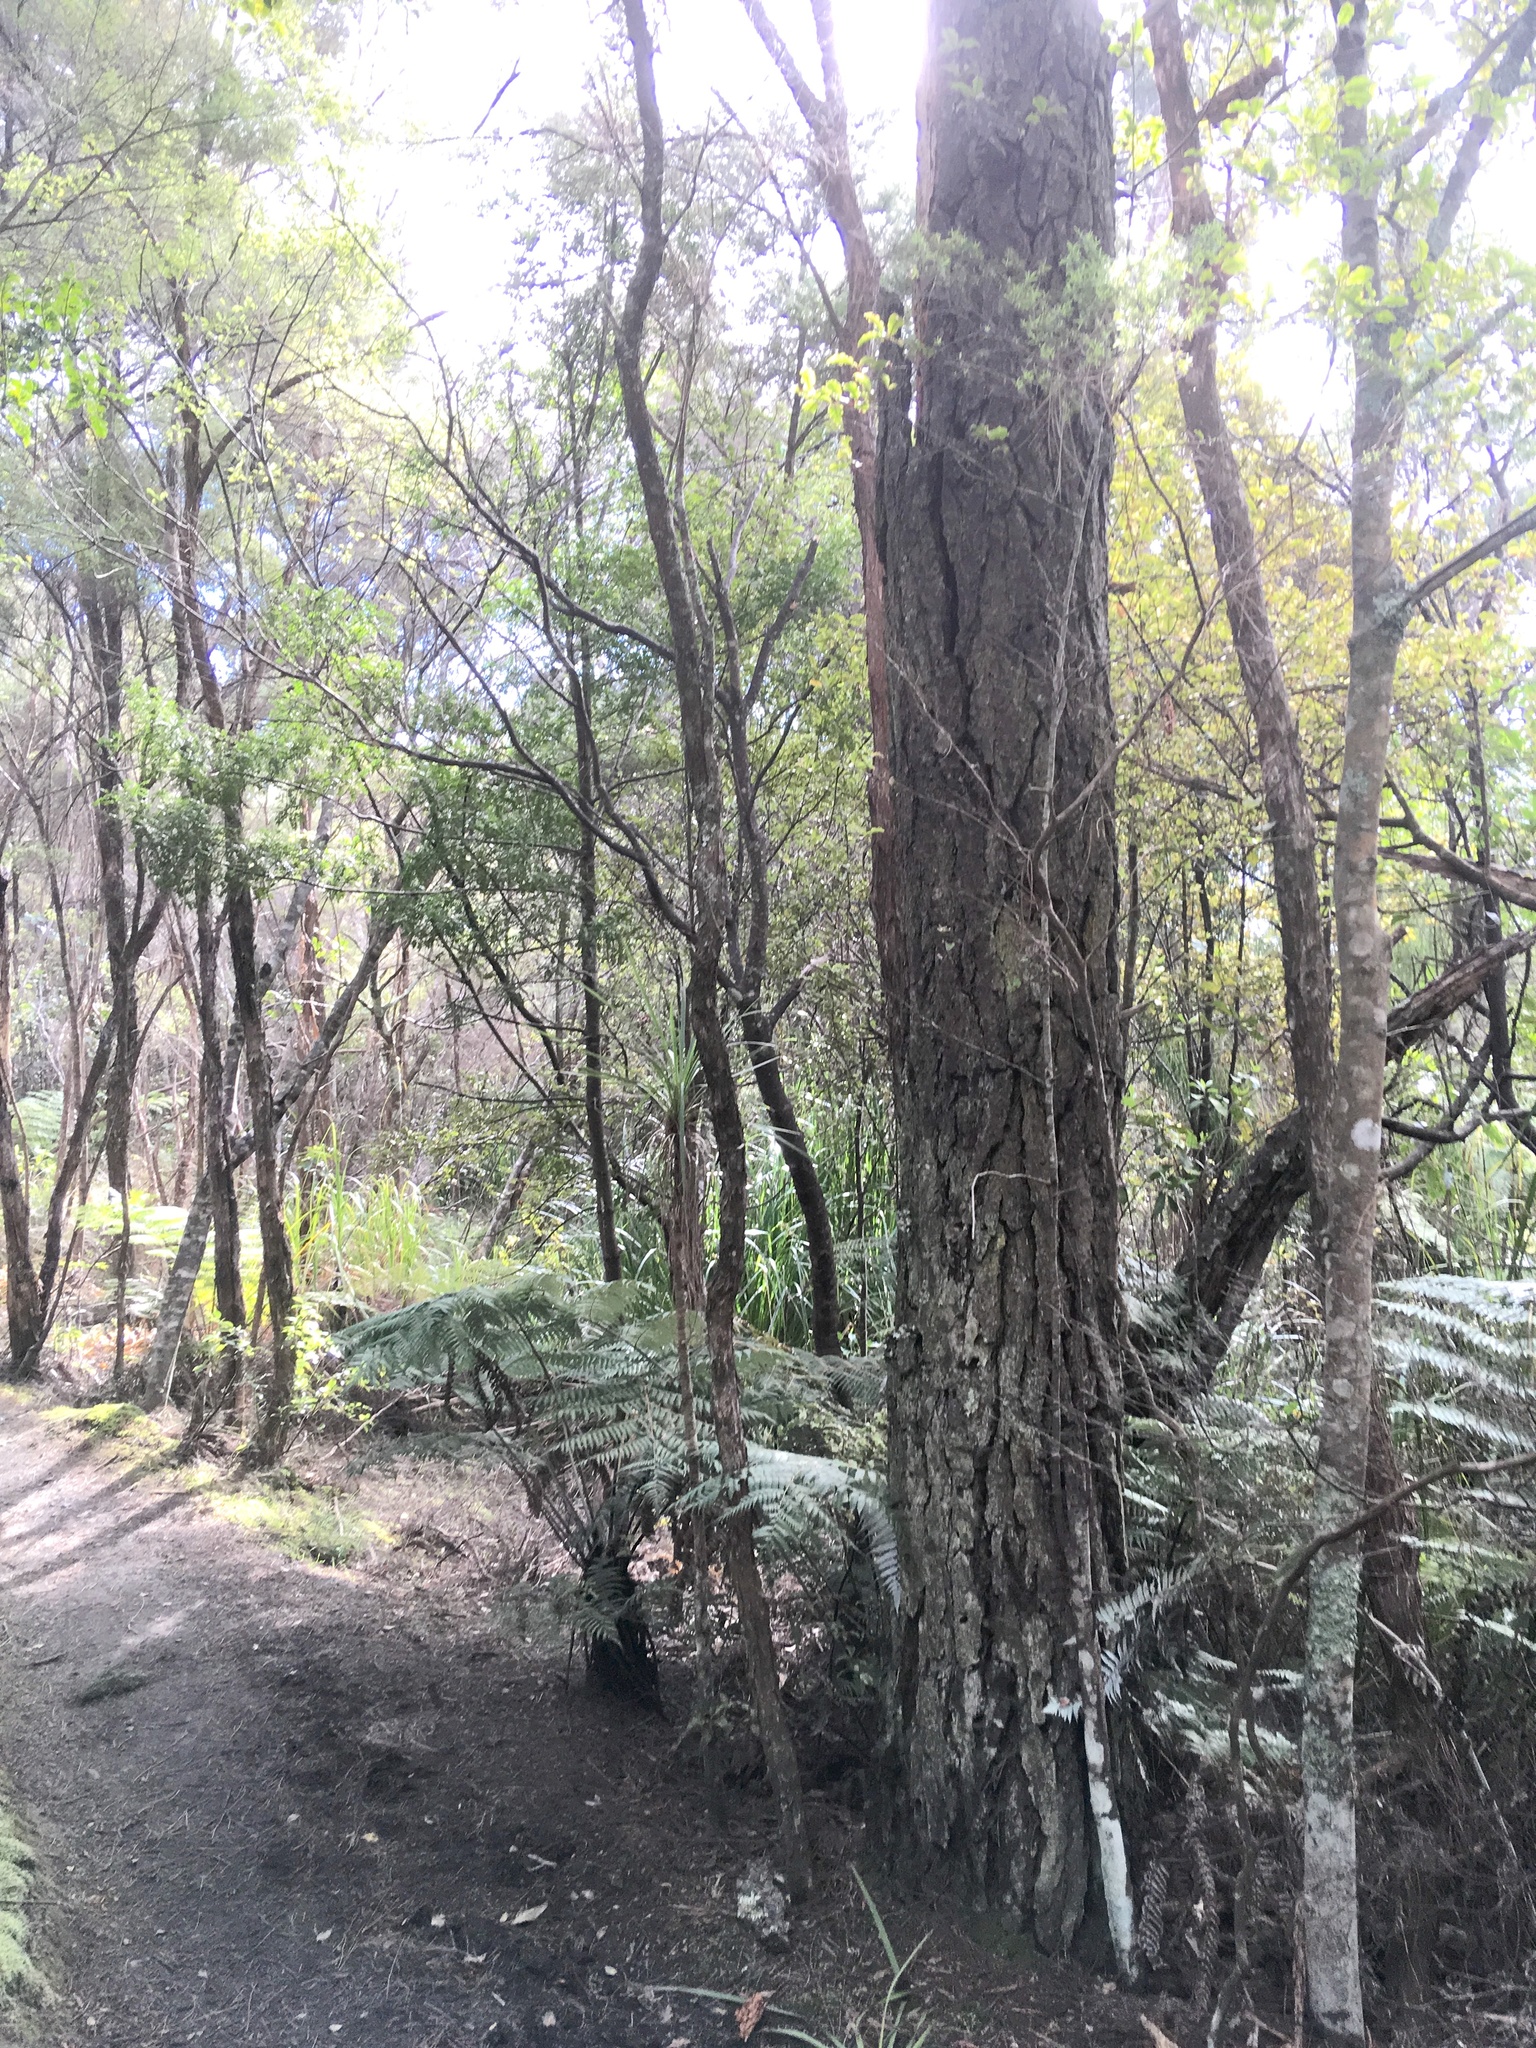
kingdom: Plantae
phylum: Tracheophyta
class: Polypodiopsida
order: Cyatheales
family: Cyatheaceae
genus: Alsophila
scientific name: Alsophila dealbata
